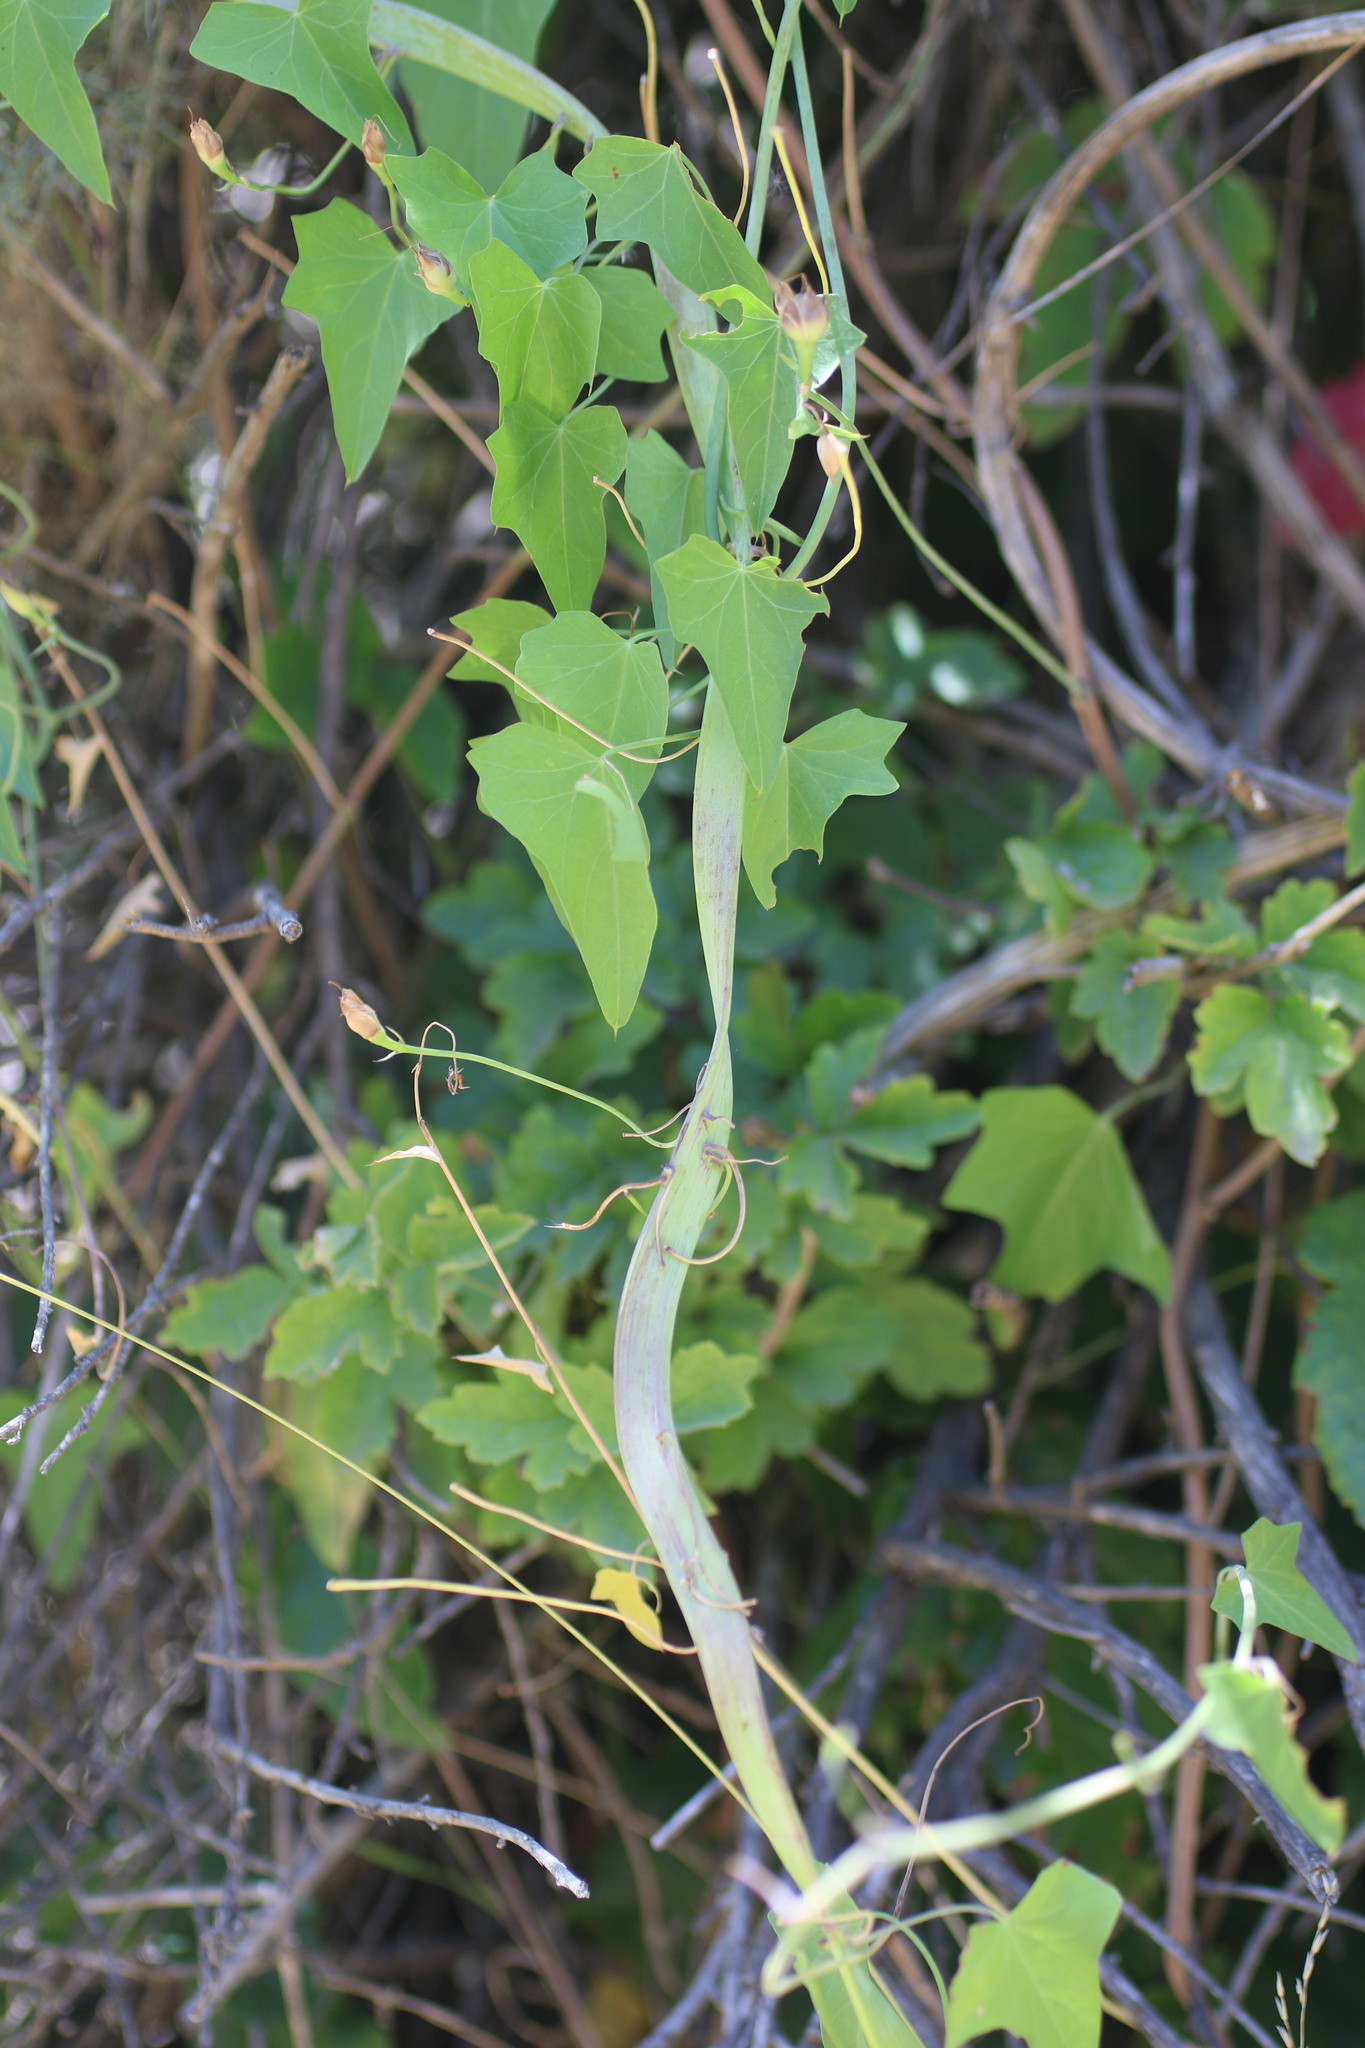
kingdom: Plantae
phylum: Tracheophyta
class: Magnoliopsida
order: Solanales
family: Convolvulaceae
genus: Calystegia
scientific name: Calystegia purpurata
